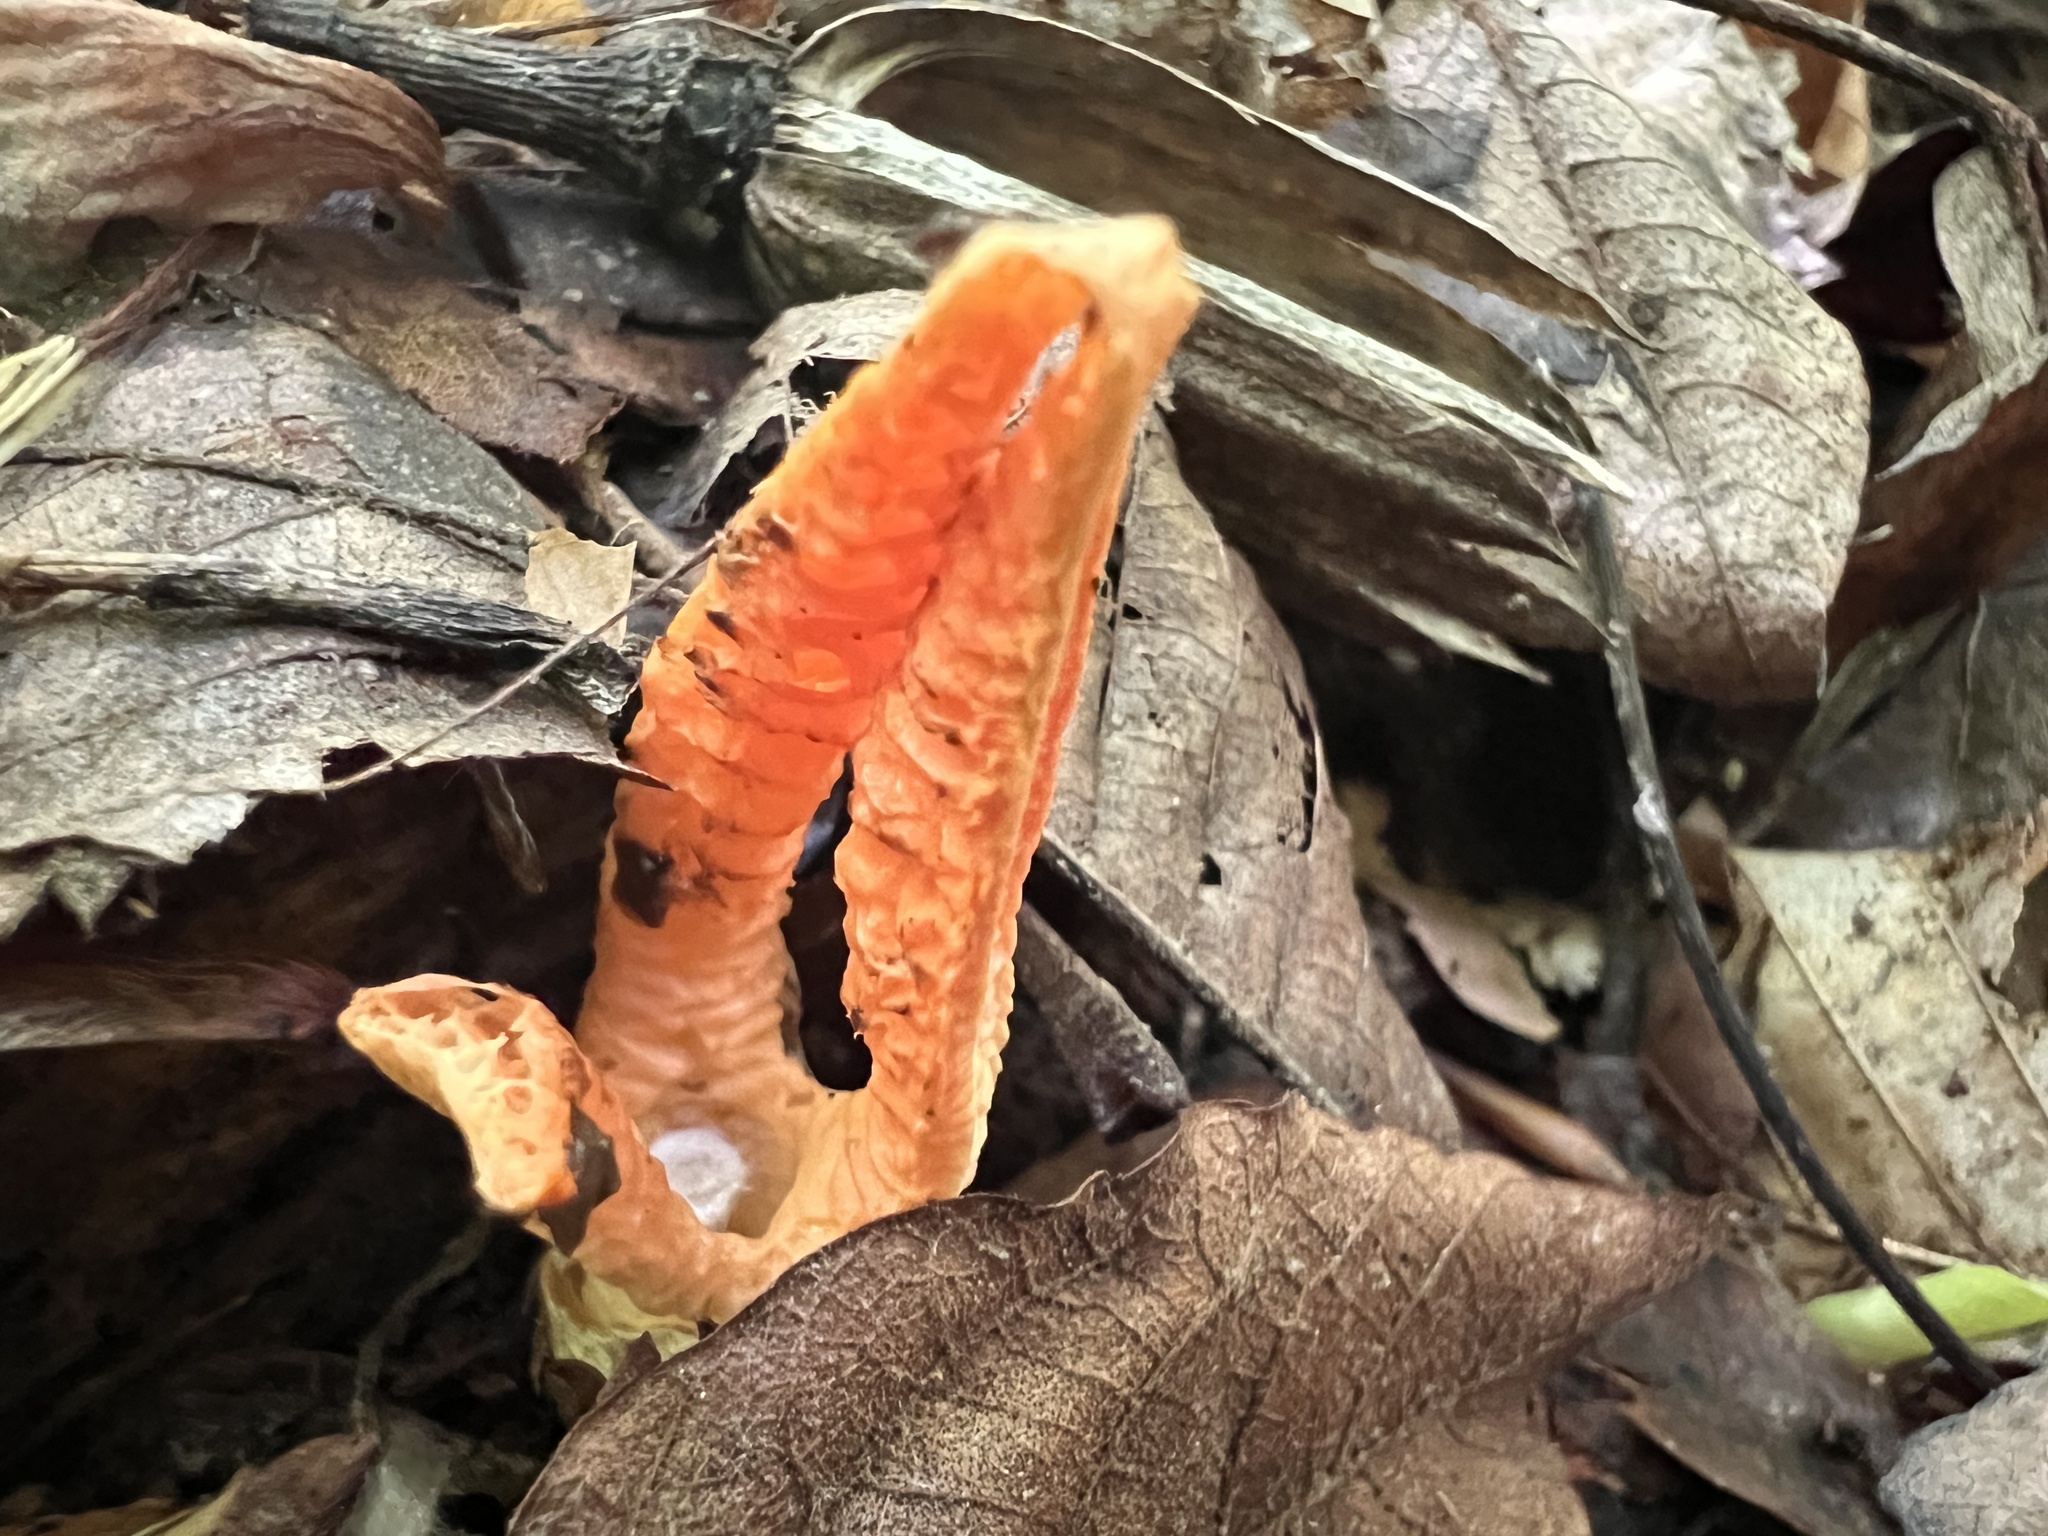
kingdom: Fungi
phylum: Basidiomycota
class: Agaricomycetes
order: Phallales
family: Phallaceae
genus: Pseudocolus
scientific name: Pseudocolus fusiformis
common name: Stinky squid
